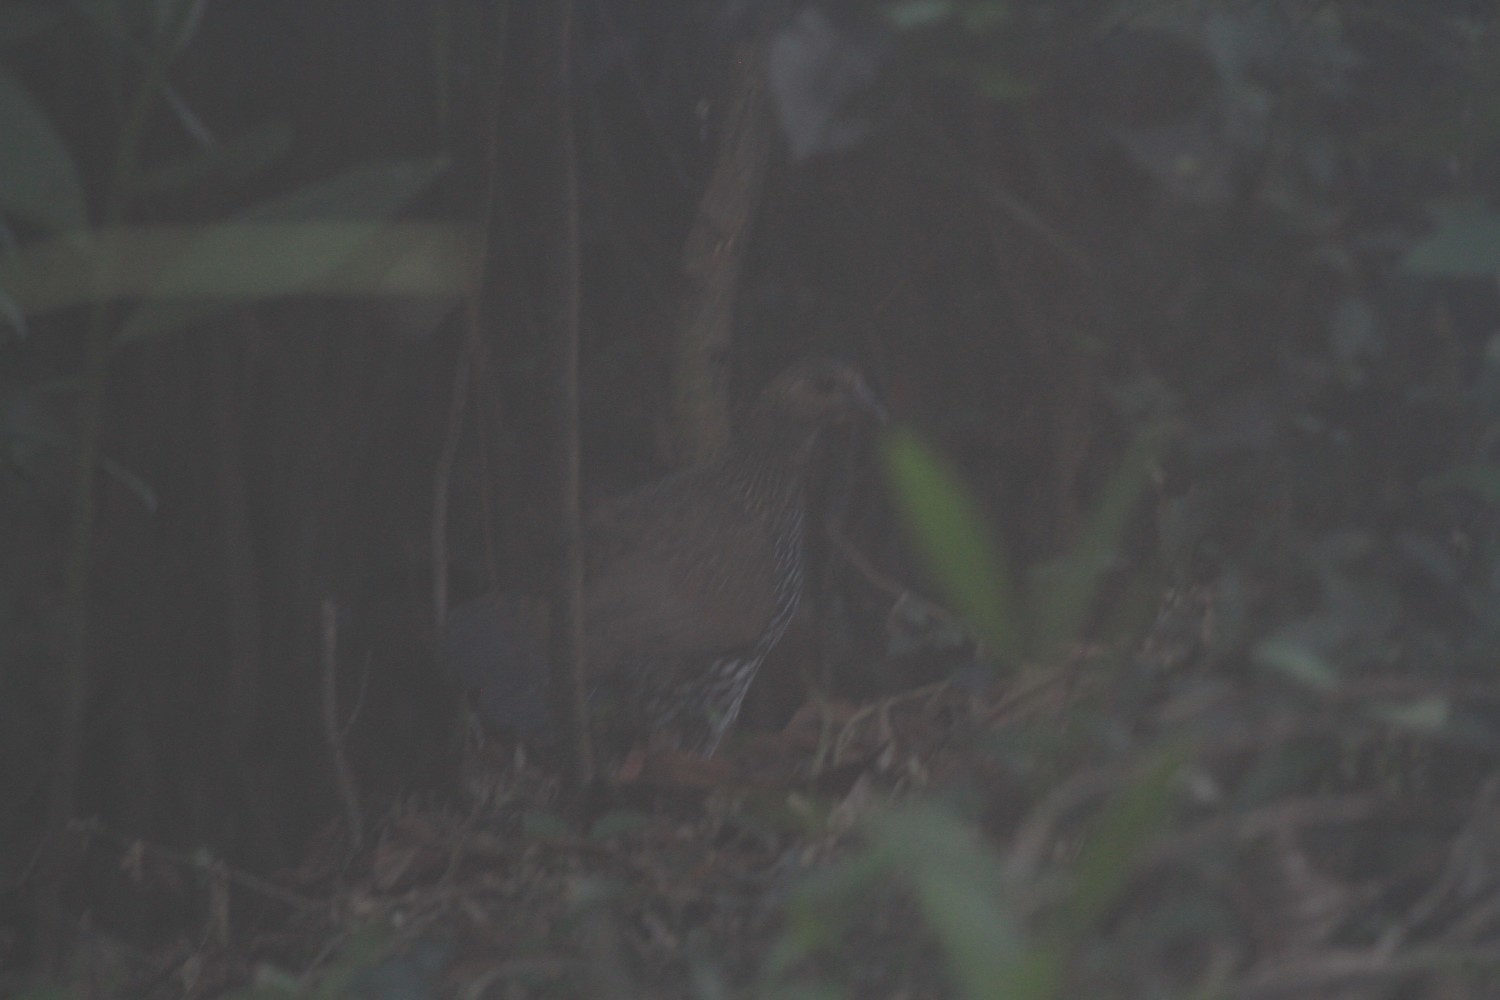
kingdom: Animalia
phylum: Chordata
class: Aves
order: Galliformes
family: Phasianidae
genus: Gallus
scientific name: Gallus sonneratii
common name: Grey junglefowl
